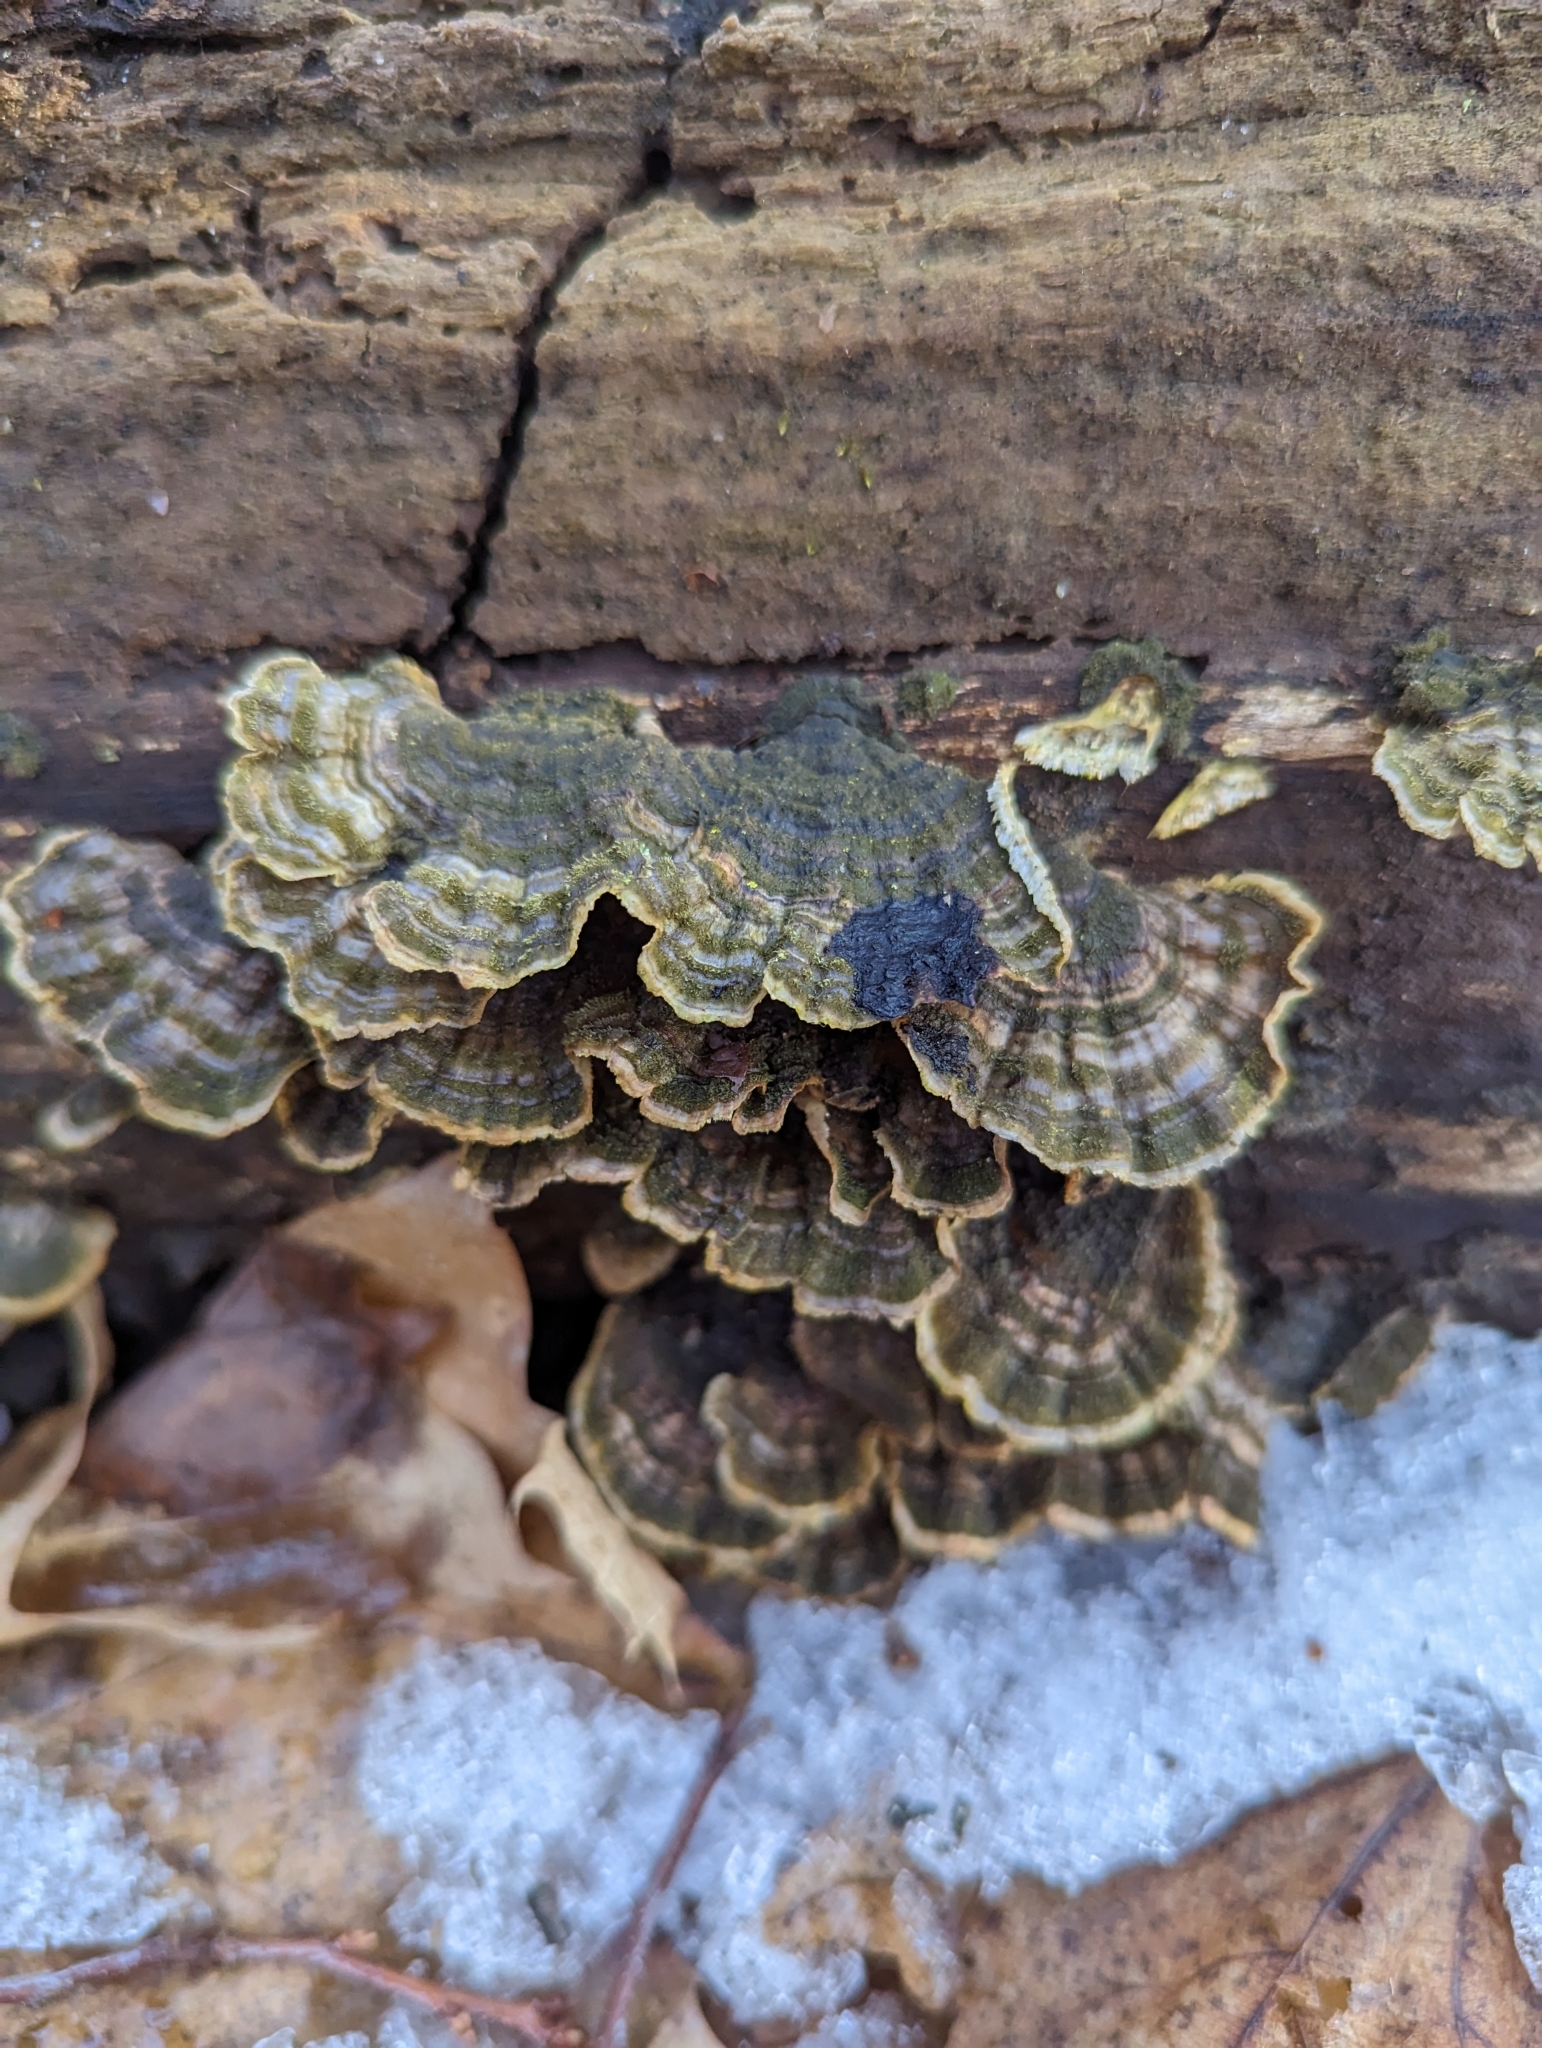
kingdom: Fungi
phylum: Basidiomycota
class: Agaricomycetes
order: Polyporales
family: Polyporaceae
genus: Trametes
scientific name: Trametes versicolor
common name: Turkeytail
